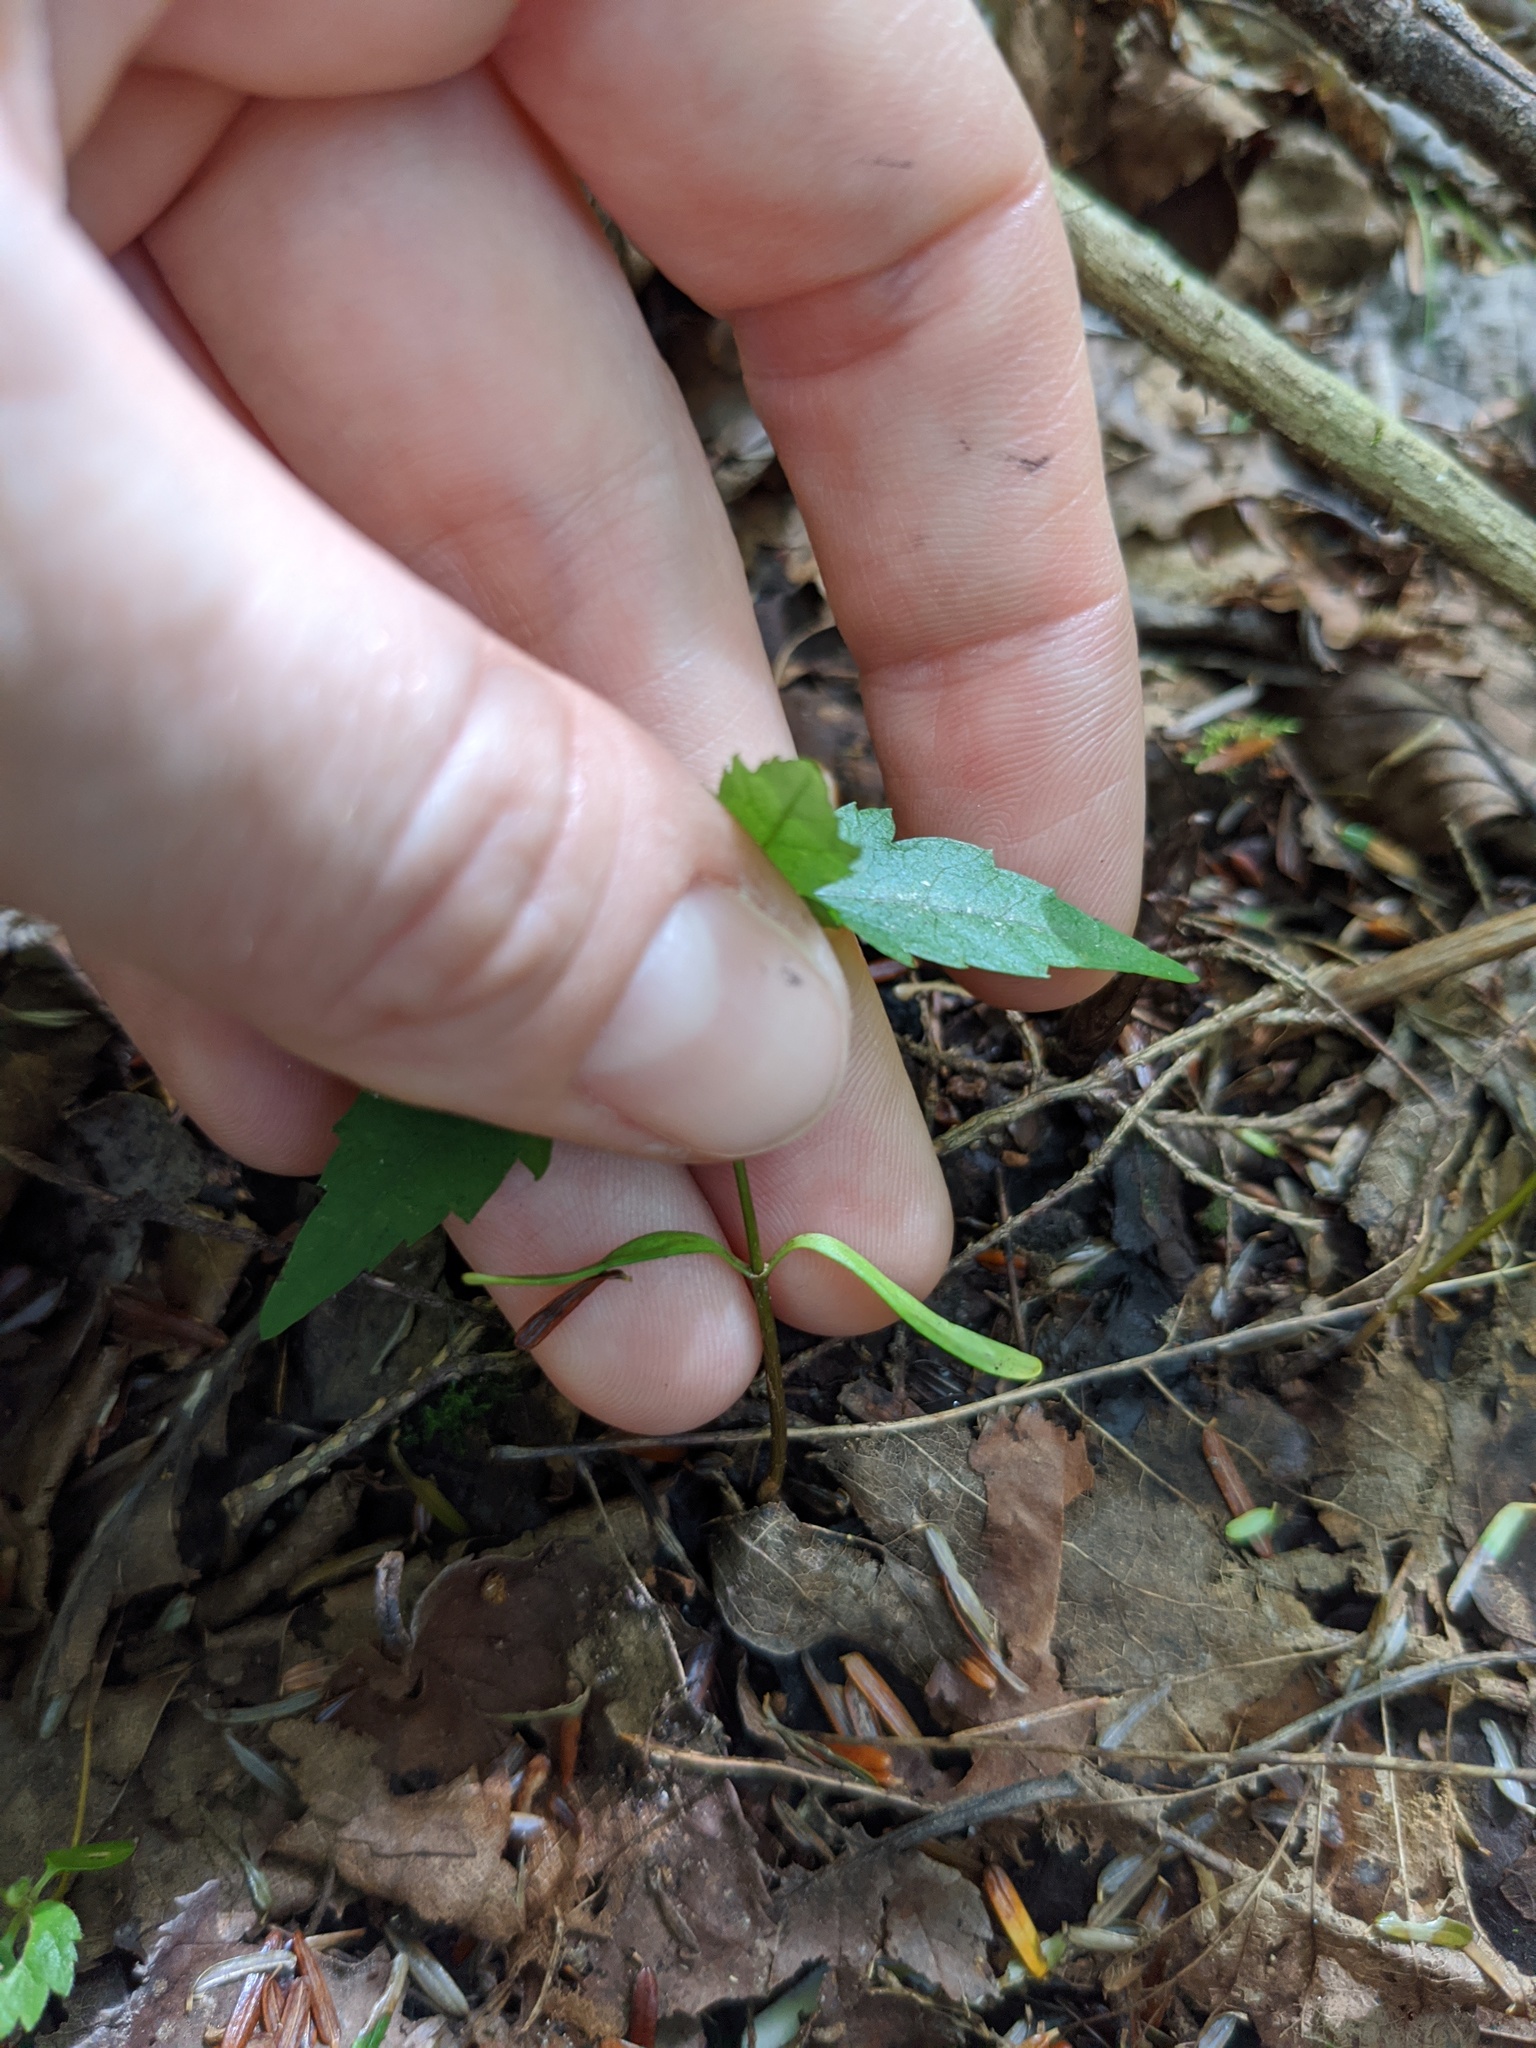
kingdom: Plantae
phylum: Tracheophyta
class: Magnoliopsida
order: Sapindales
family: Sapindaceae
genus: Acer
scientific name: Acer rubrum
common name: Red maple
